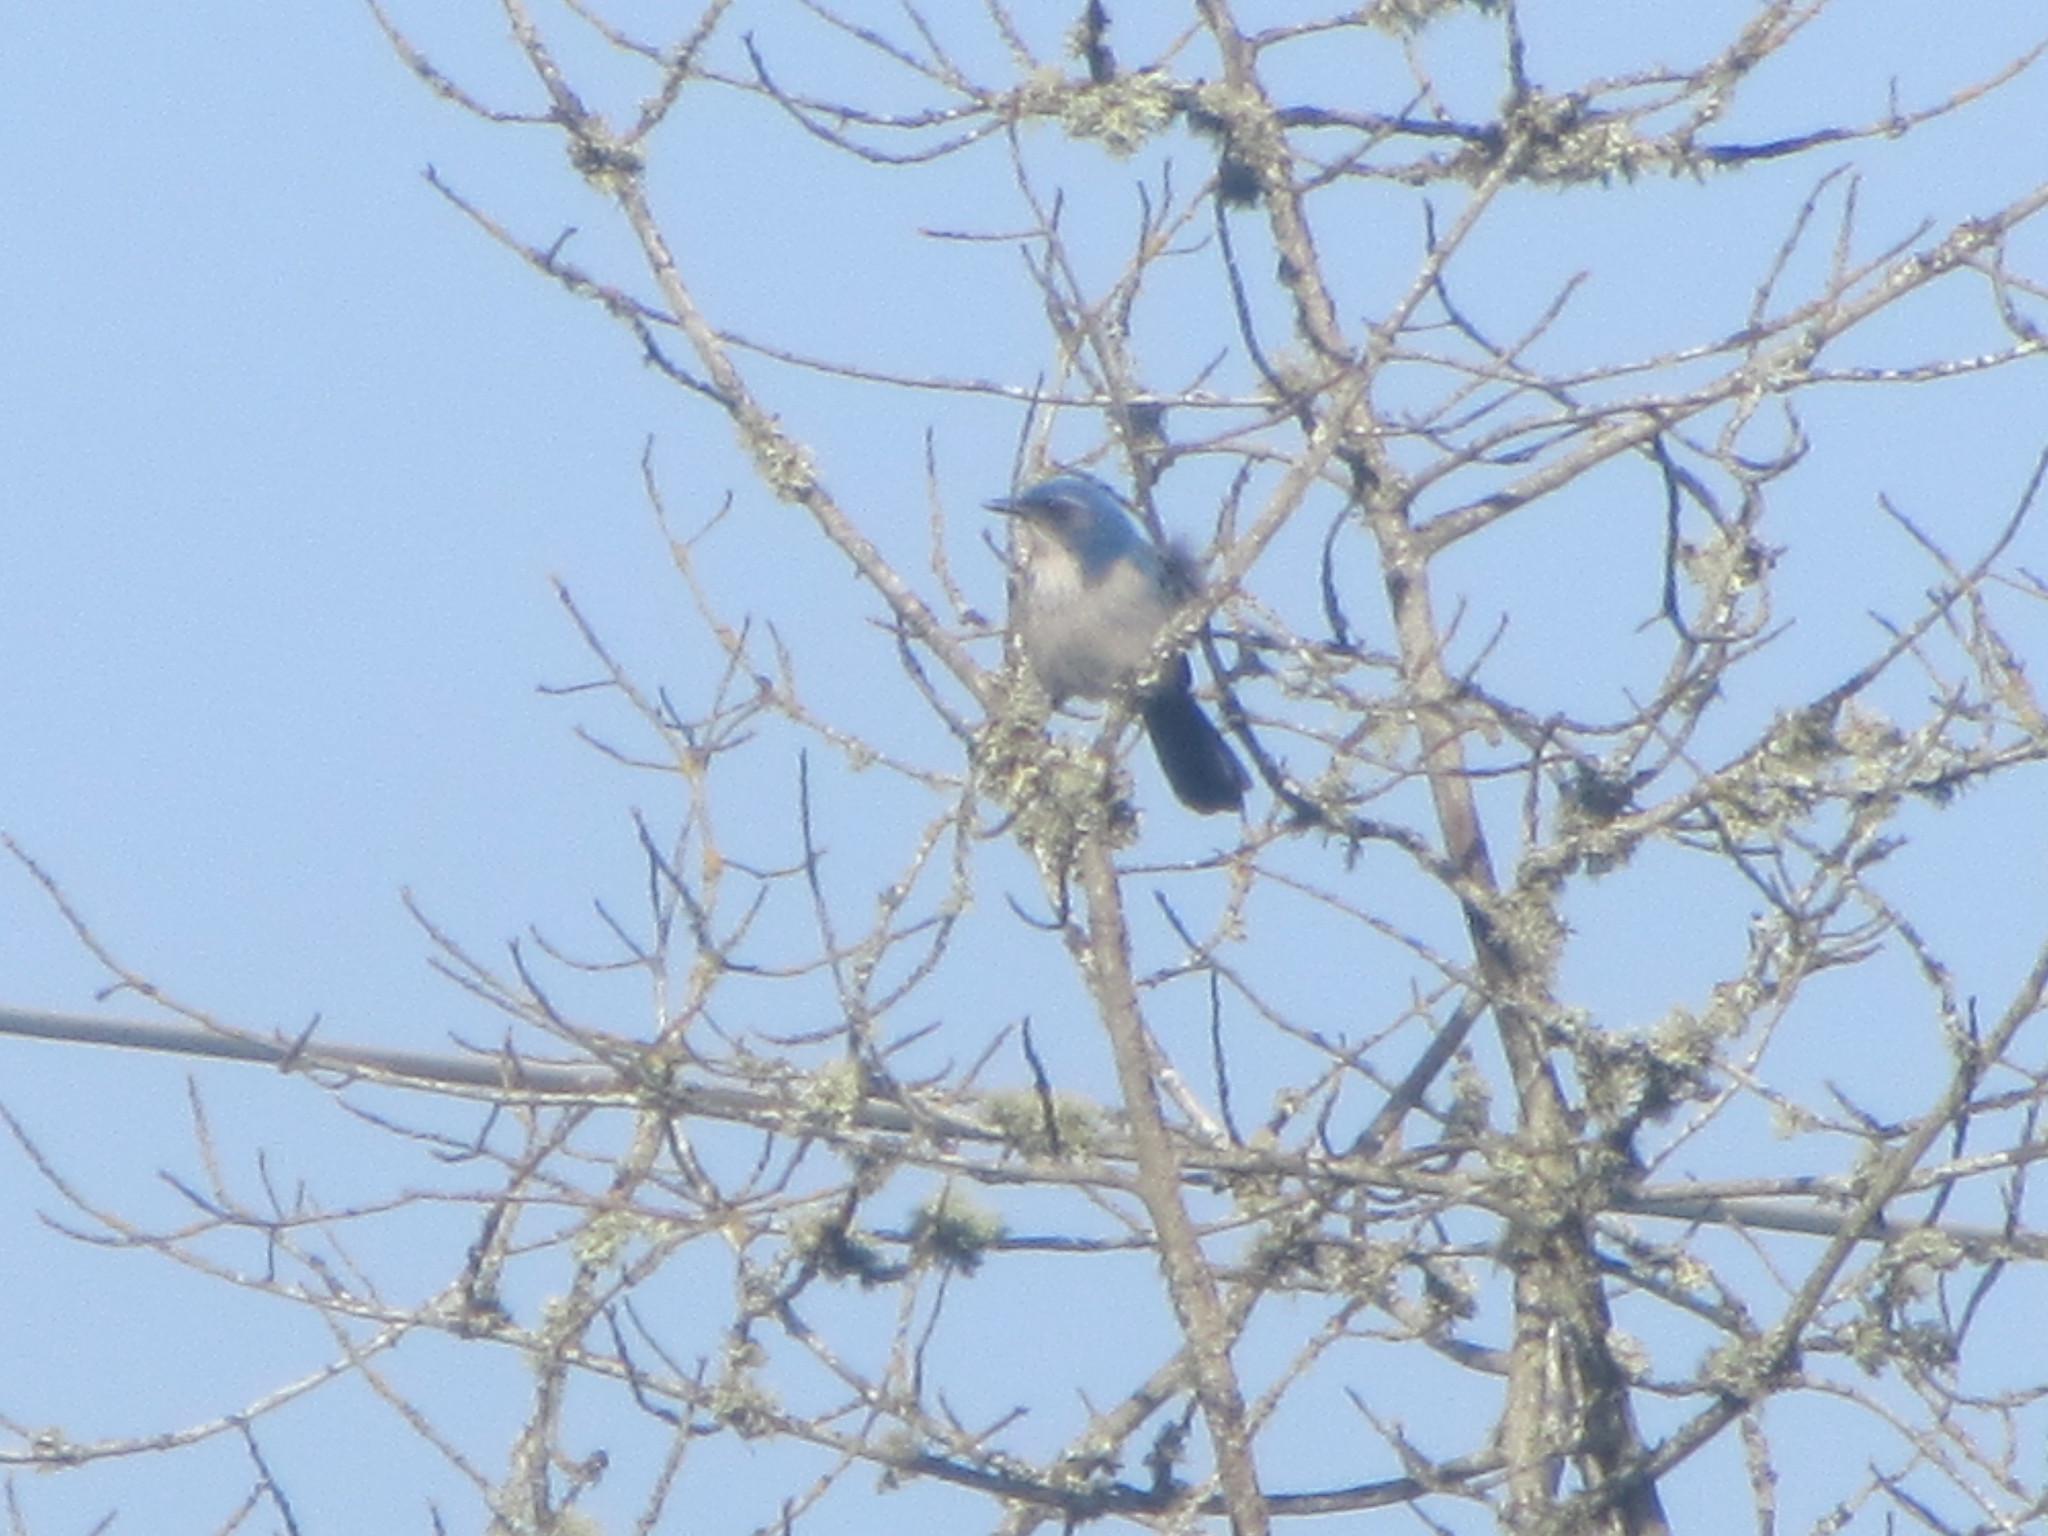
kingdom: Animalia
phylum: Chordata
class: Aves
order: Passeriformes
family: Corvidae
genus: Aphelocoma
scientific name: Aphelocoma californica
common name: California scrub-jay
